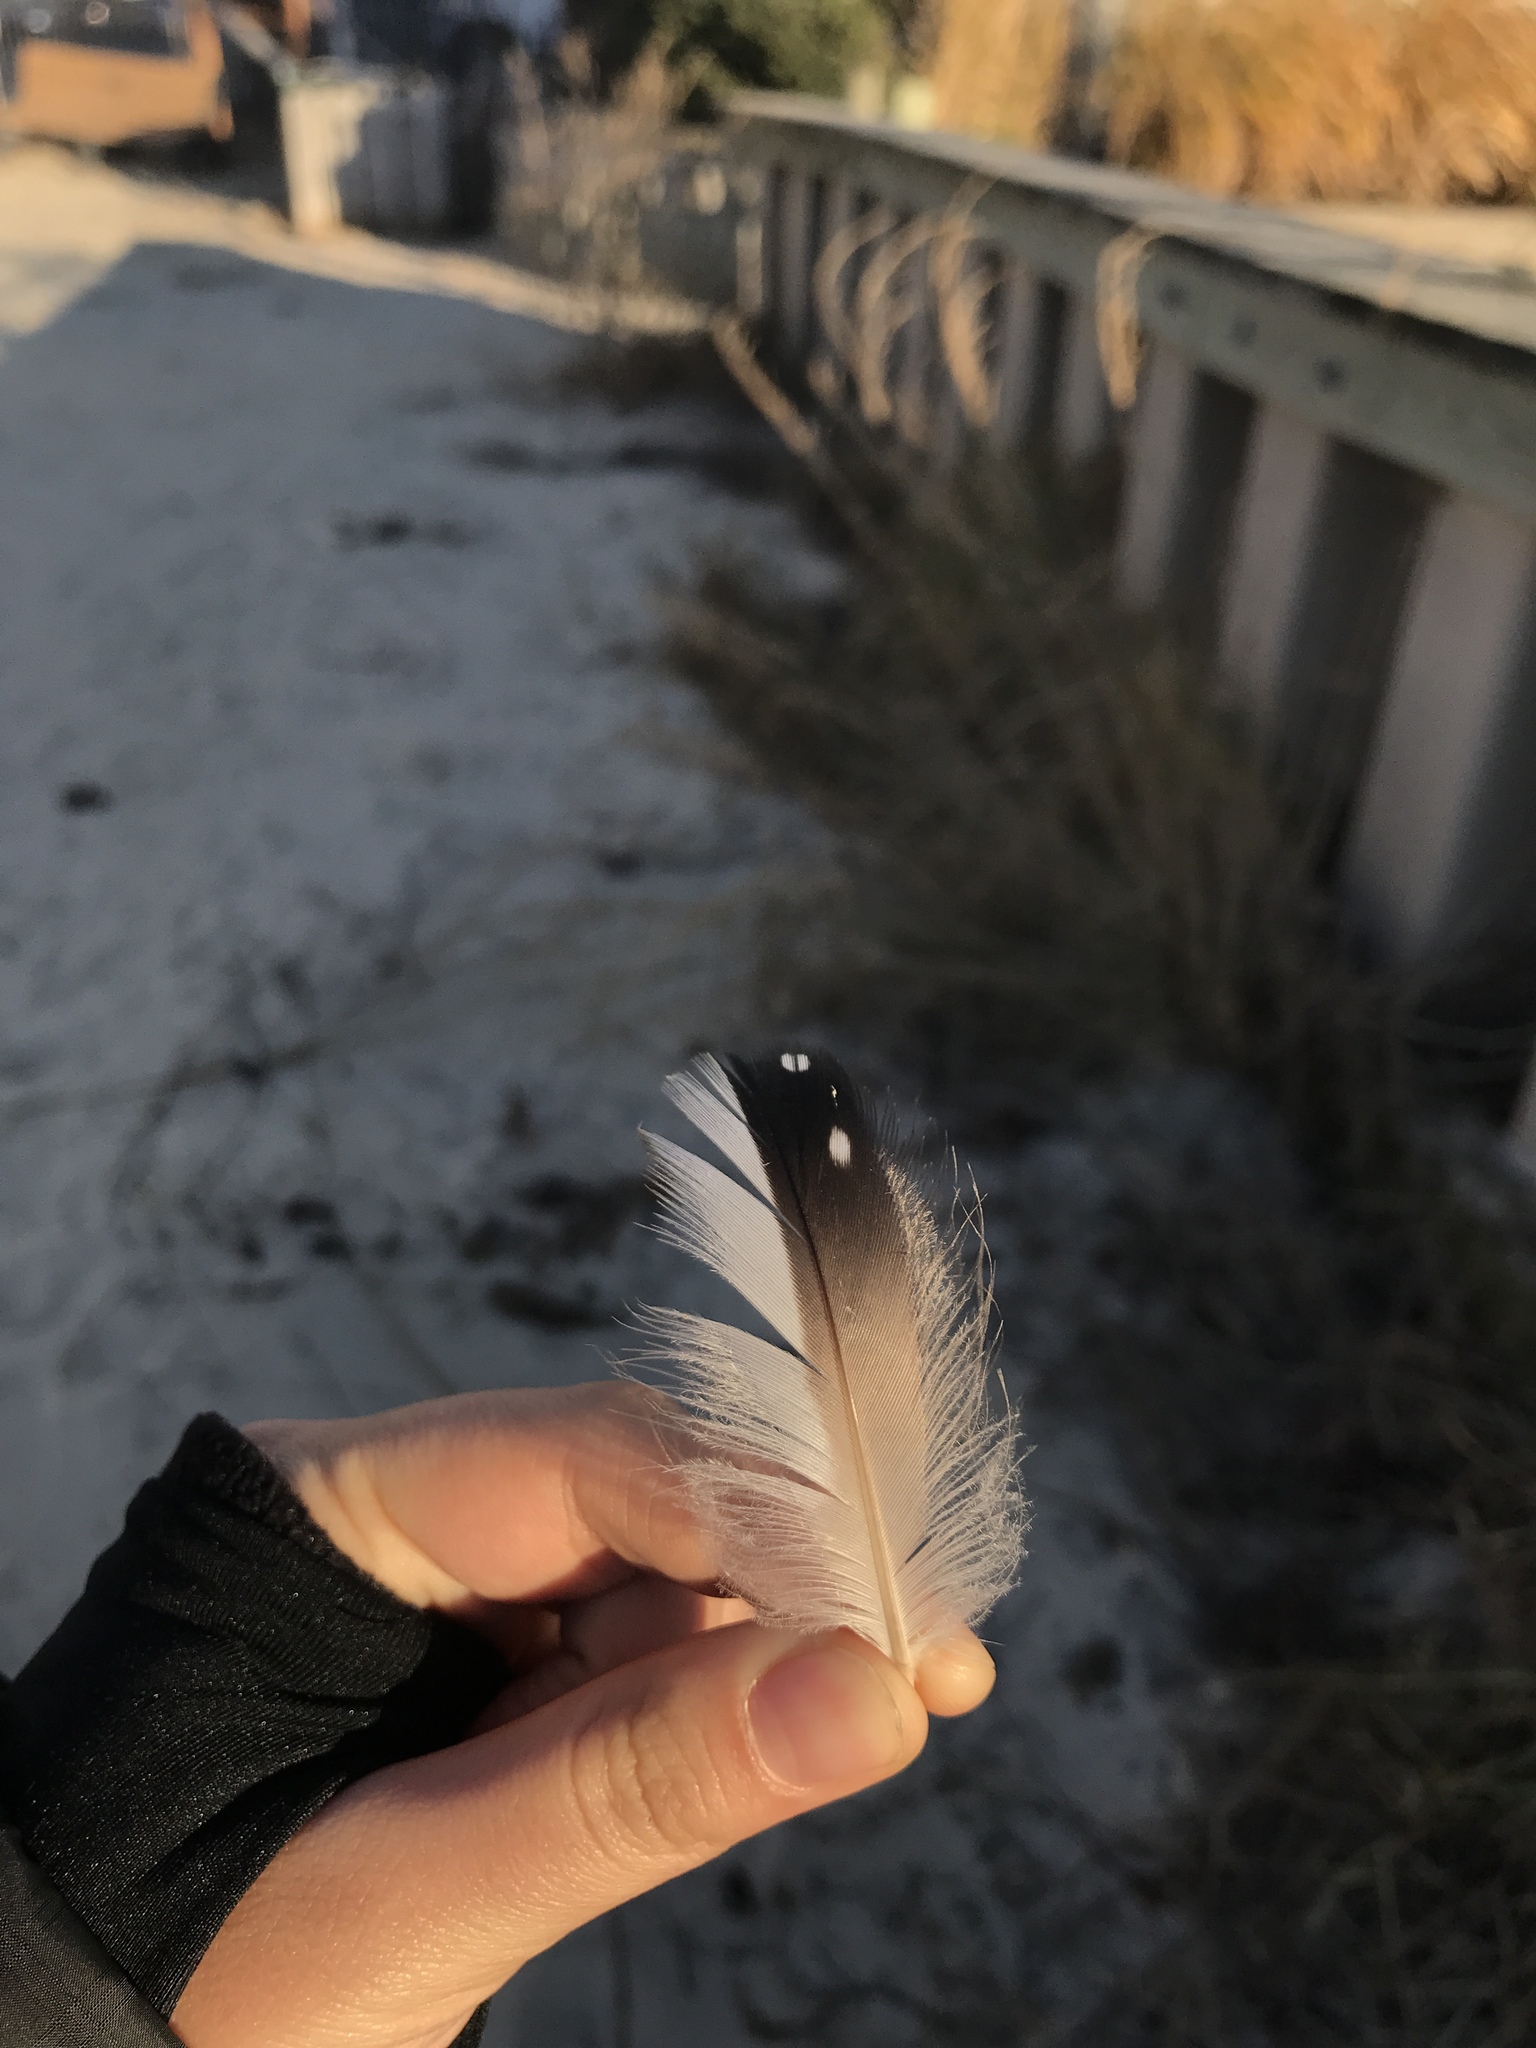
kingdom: Animalia
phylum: Chordata
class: Aves
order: Gaviiformes
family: Gaviidae
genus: Gavia
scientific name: Gavia immer
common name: Common loon
